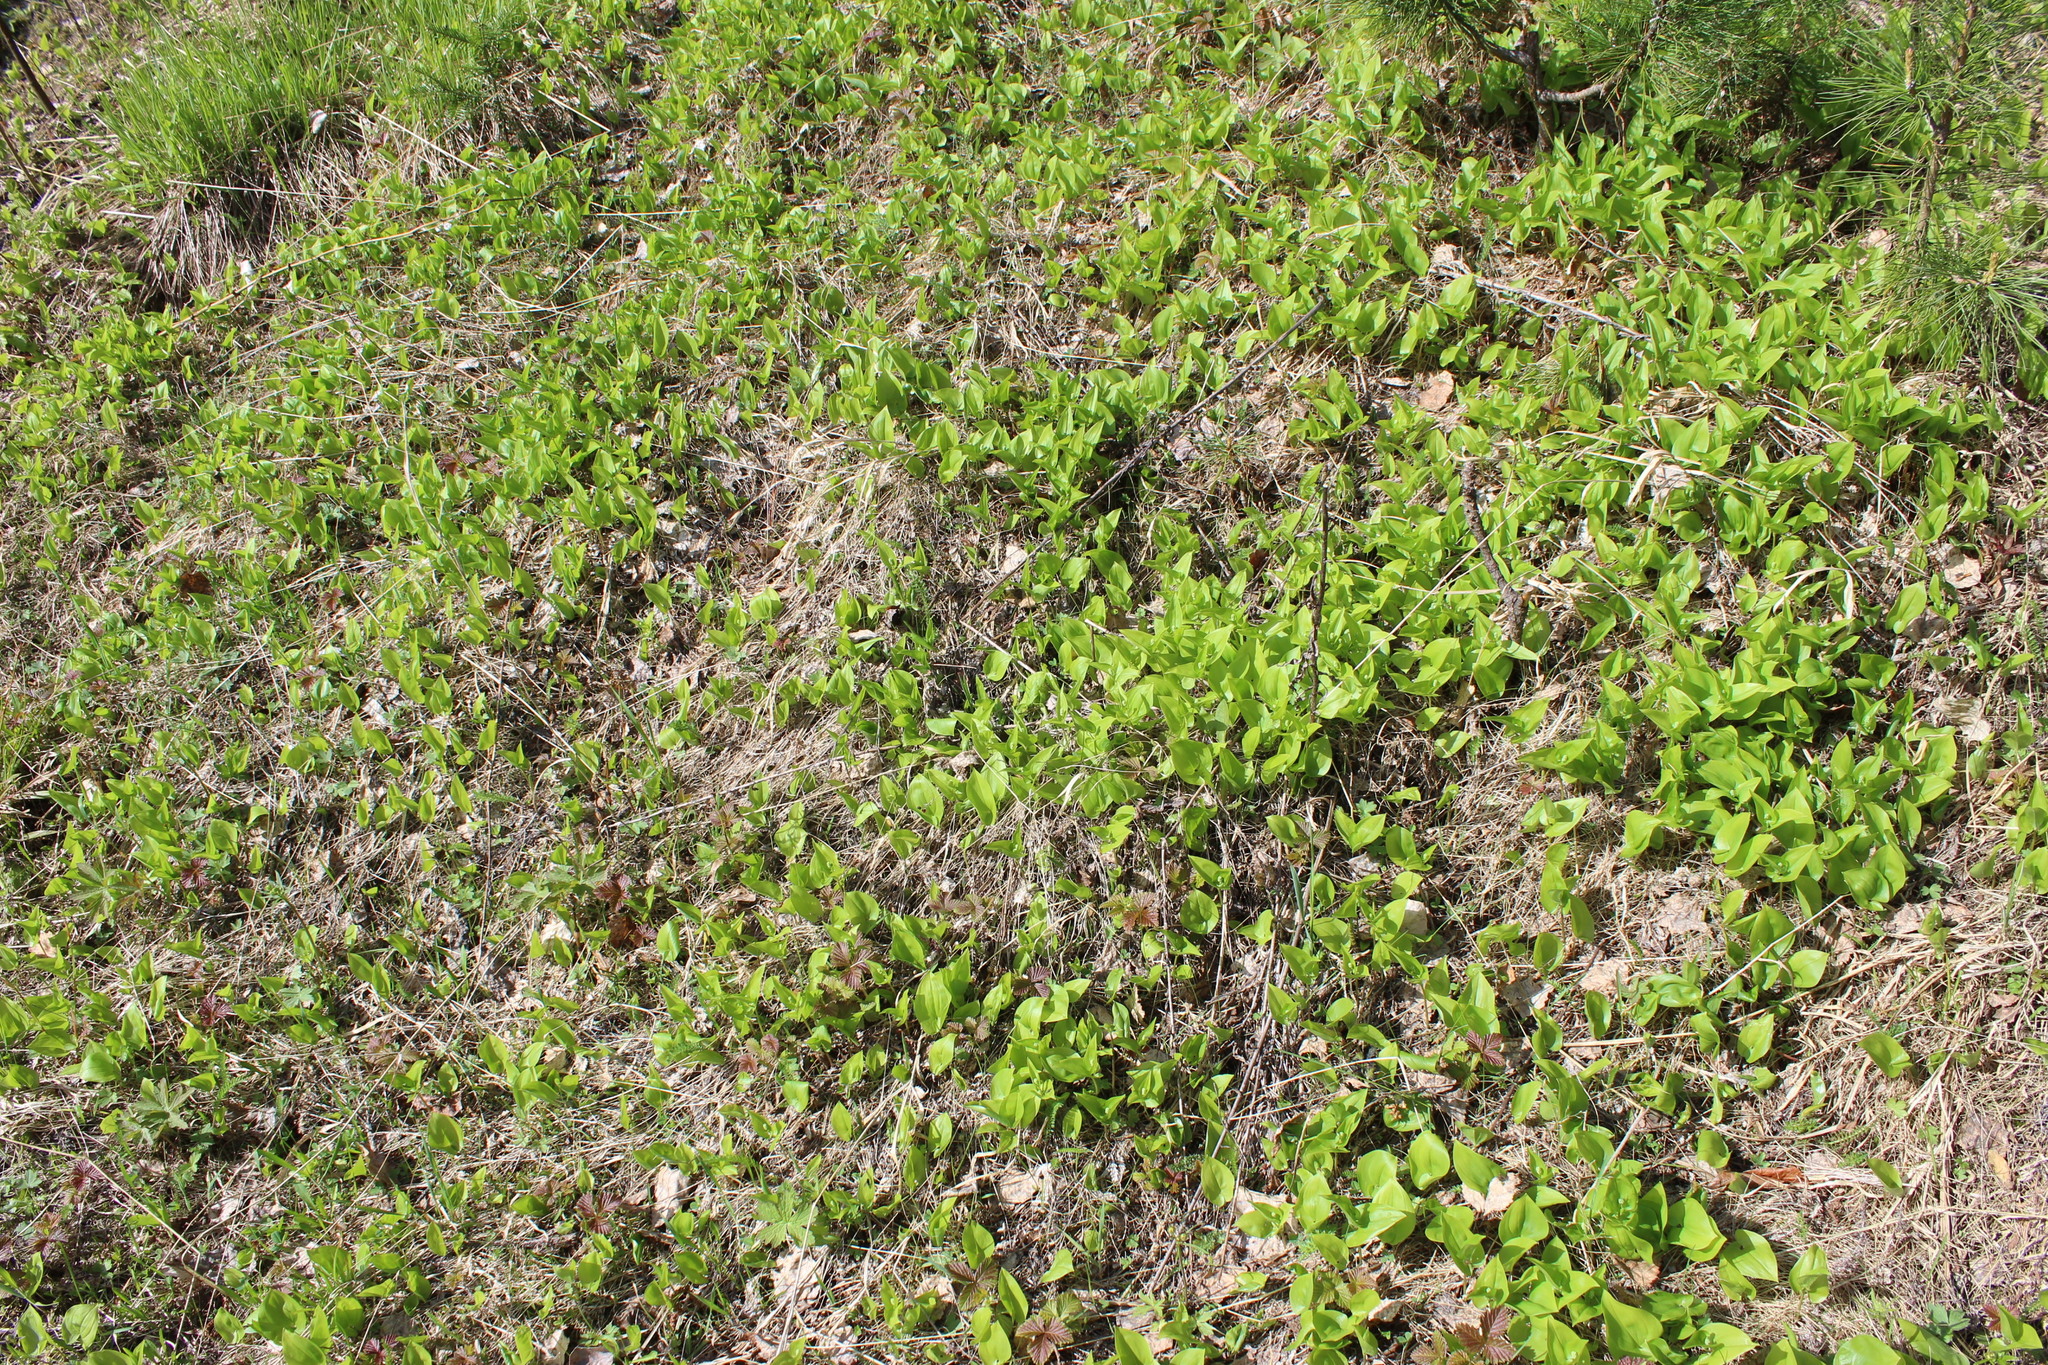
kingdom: Plantae
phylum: Tracheophyta
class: Liliopsida
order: Asparagales
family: Asparagaceae
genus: Maianthemum
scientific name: Maianthemum bifolium
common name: May lily
